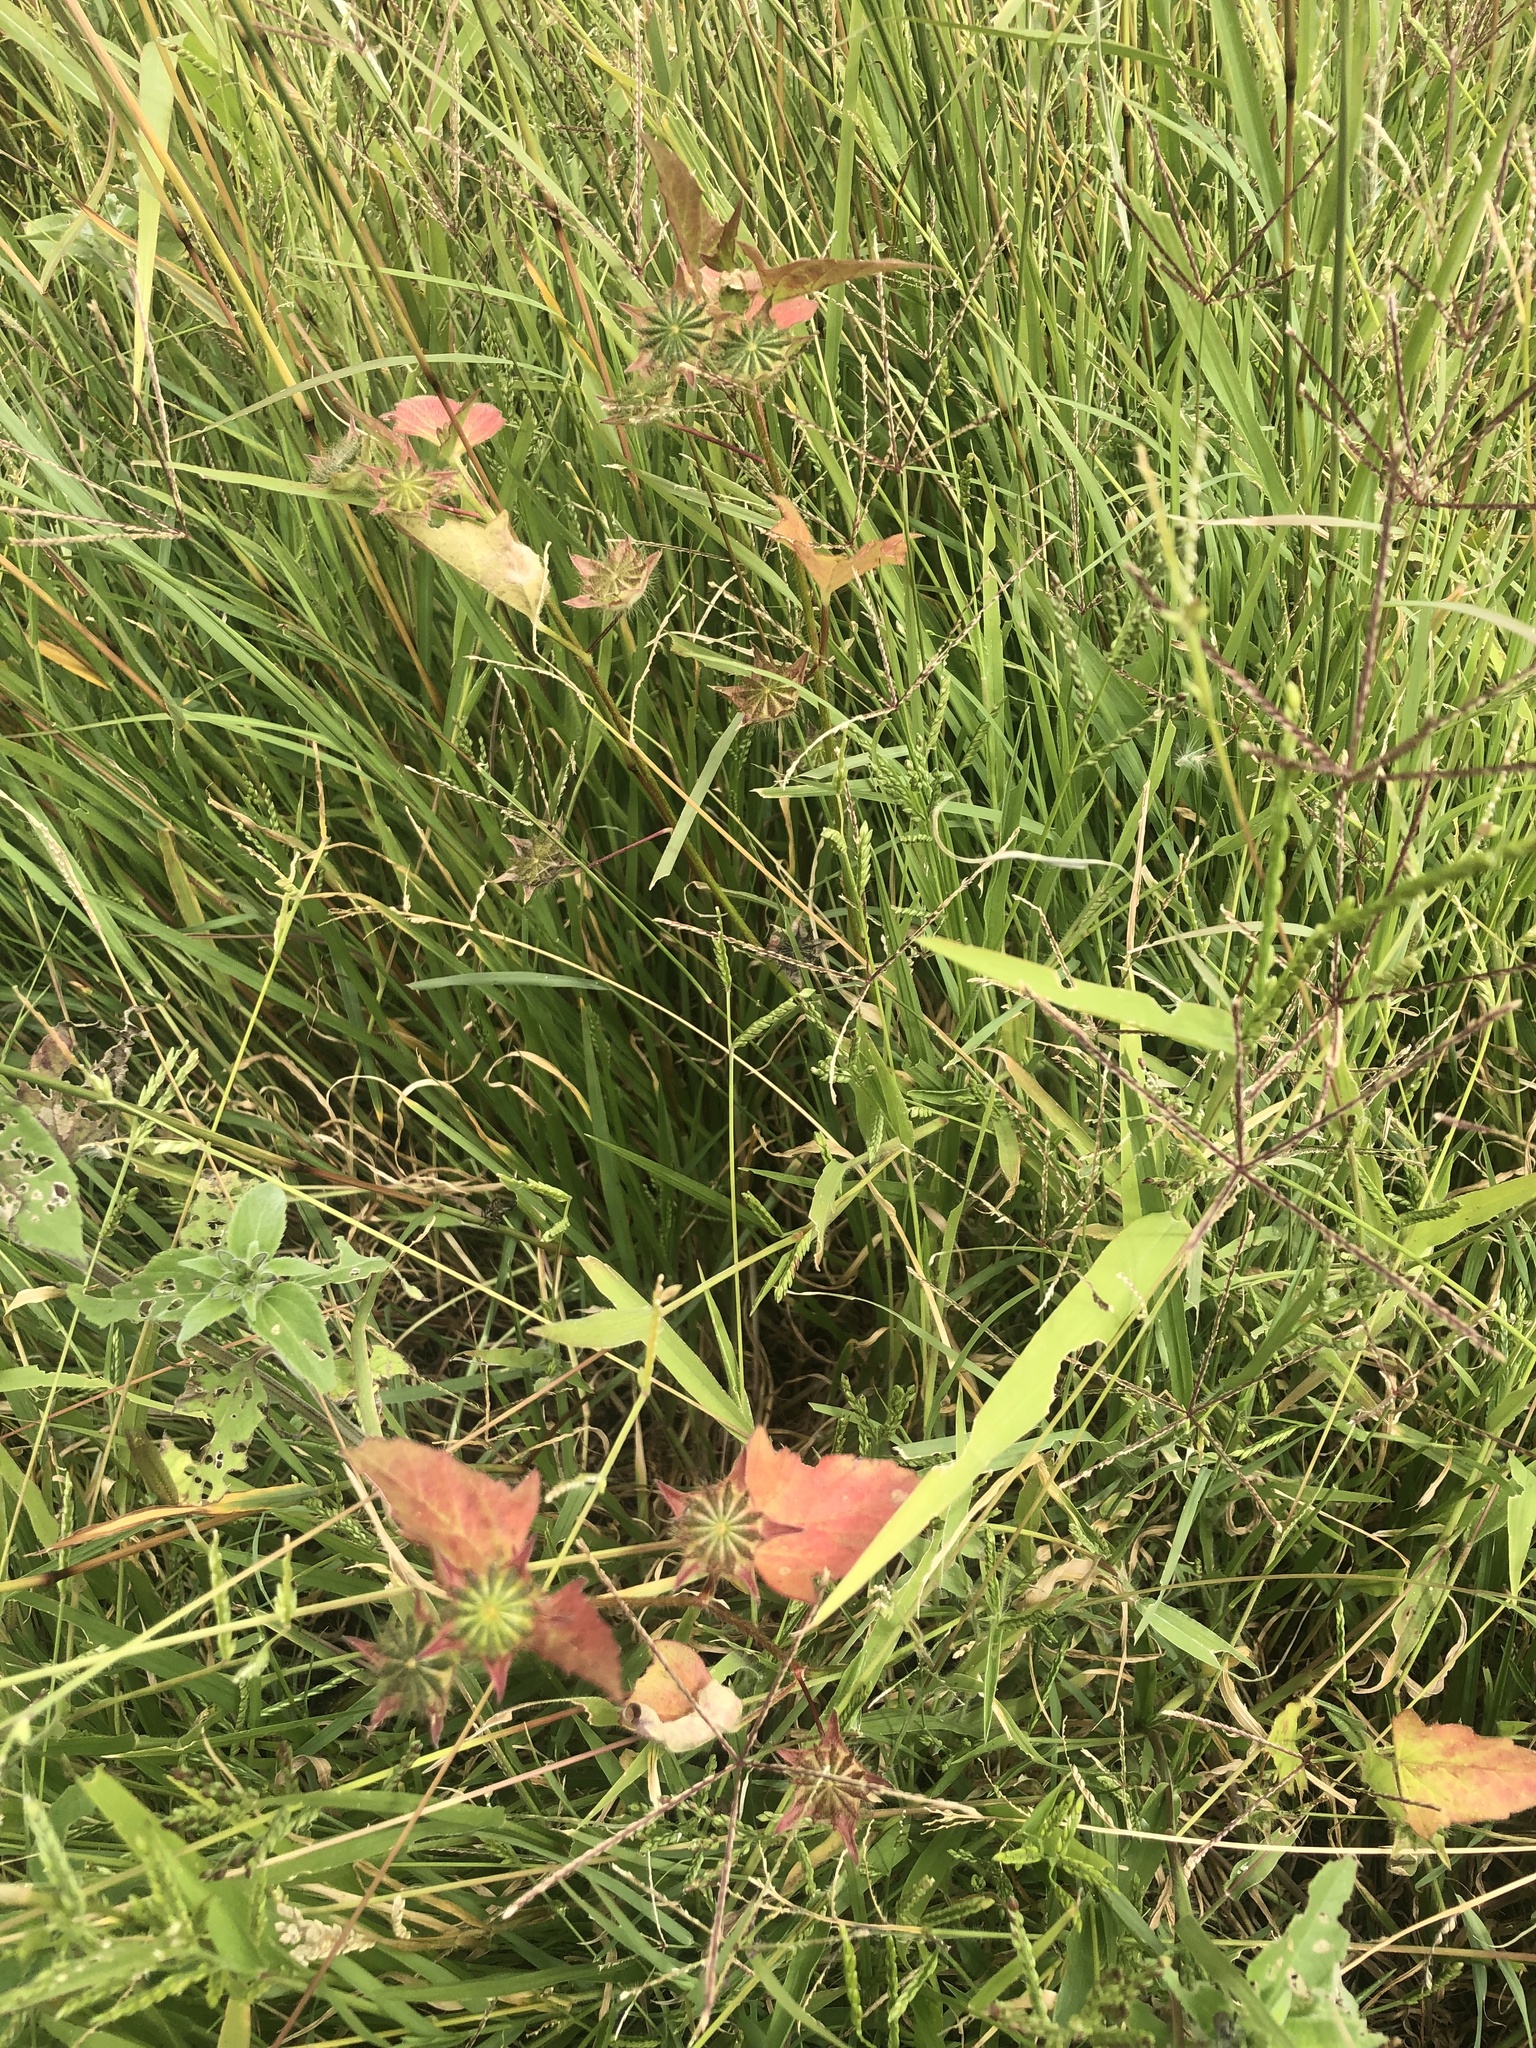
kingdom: Plantae
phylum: Tracheophyta
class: Magnoliopsida
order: Malvales
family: Malvaceae
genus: Anoda
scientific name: Anoda cristata
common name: Spurred anoda
